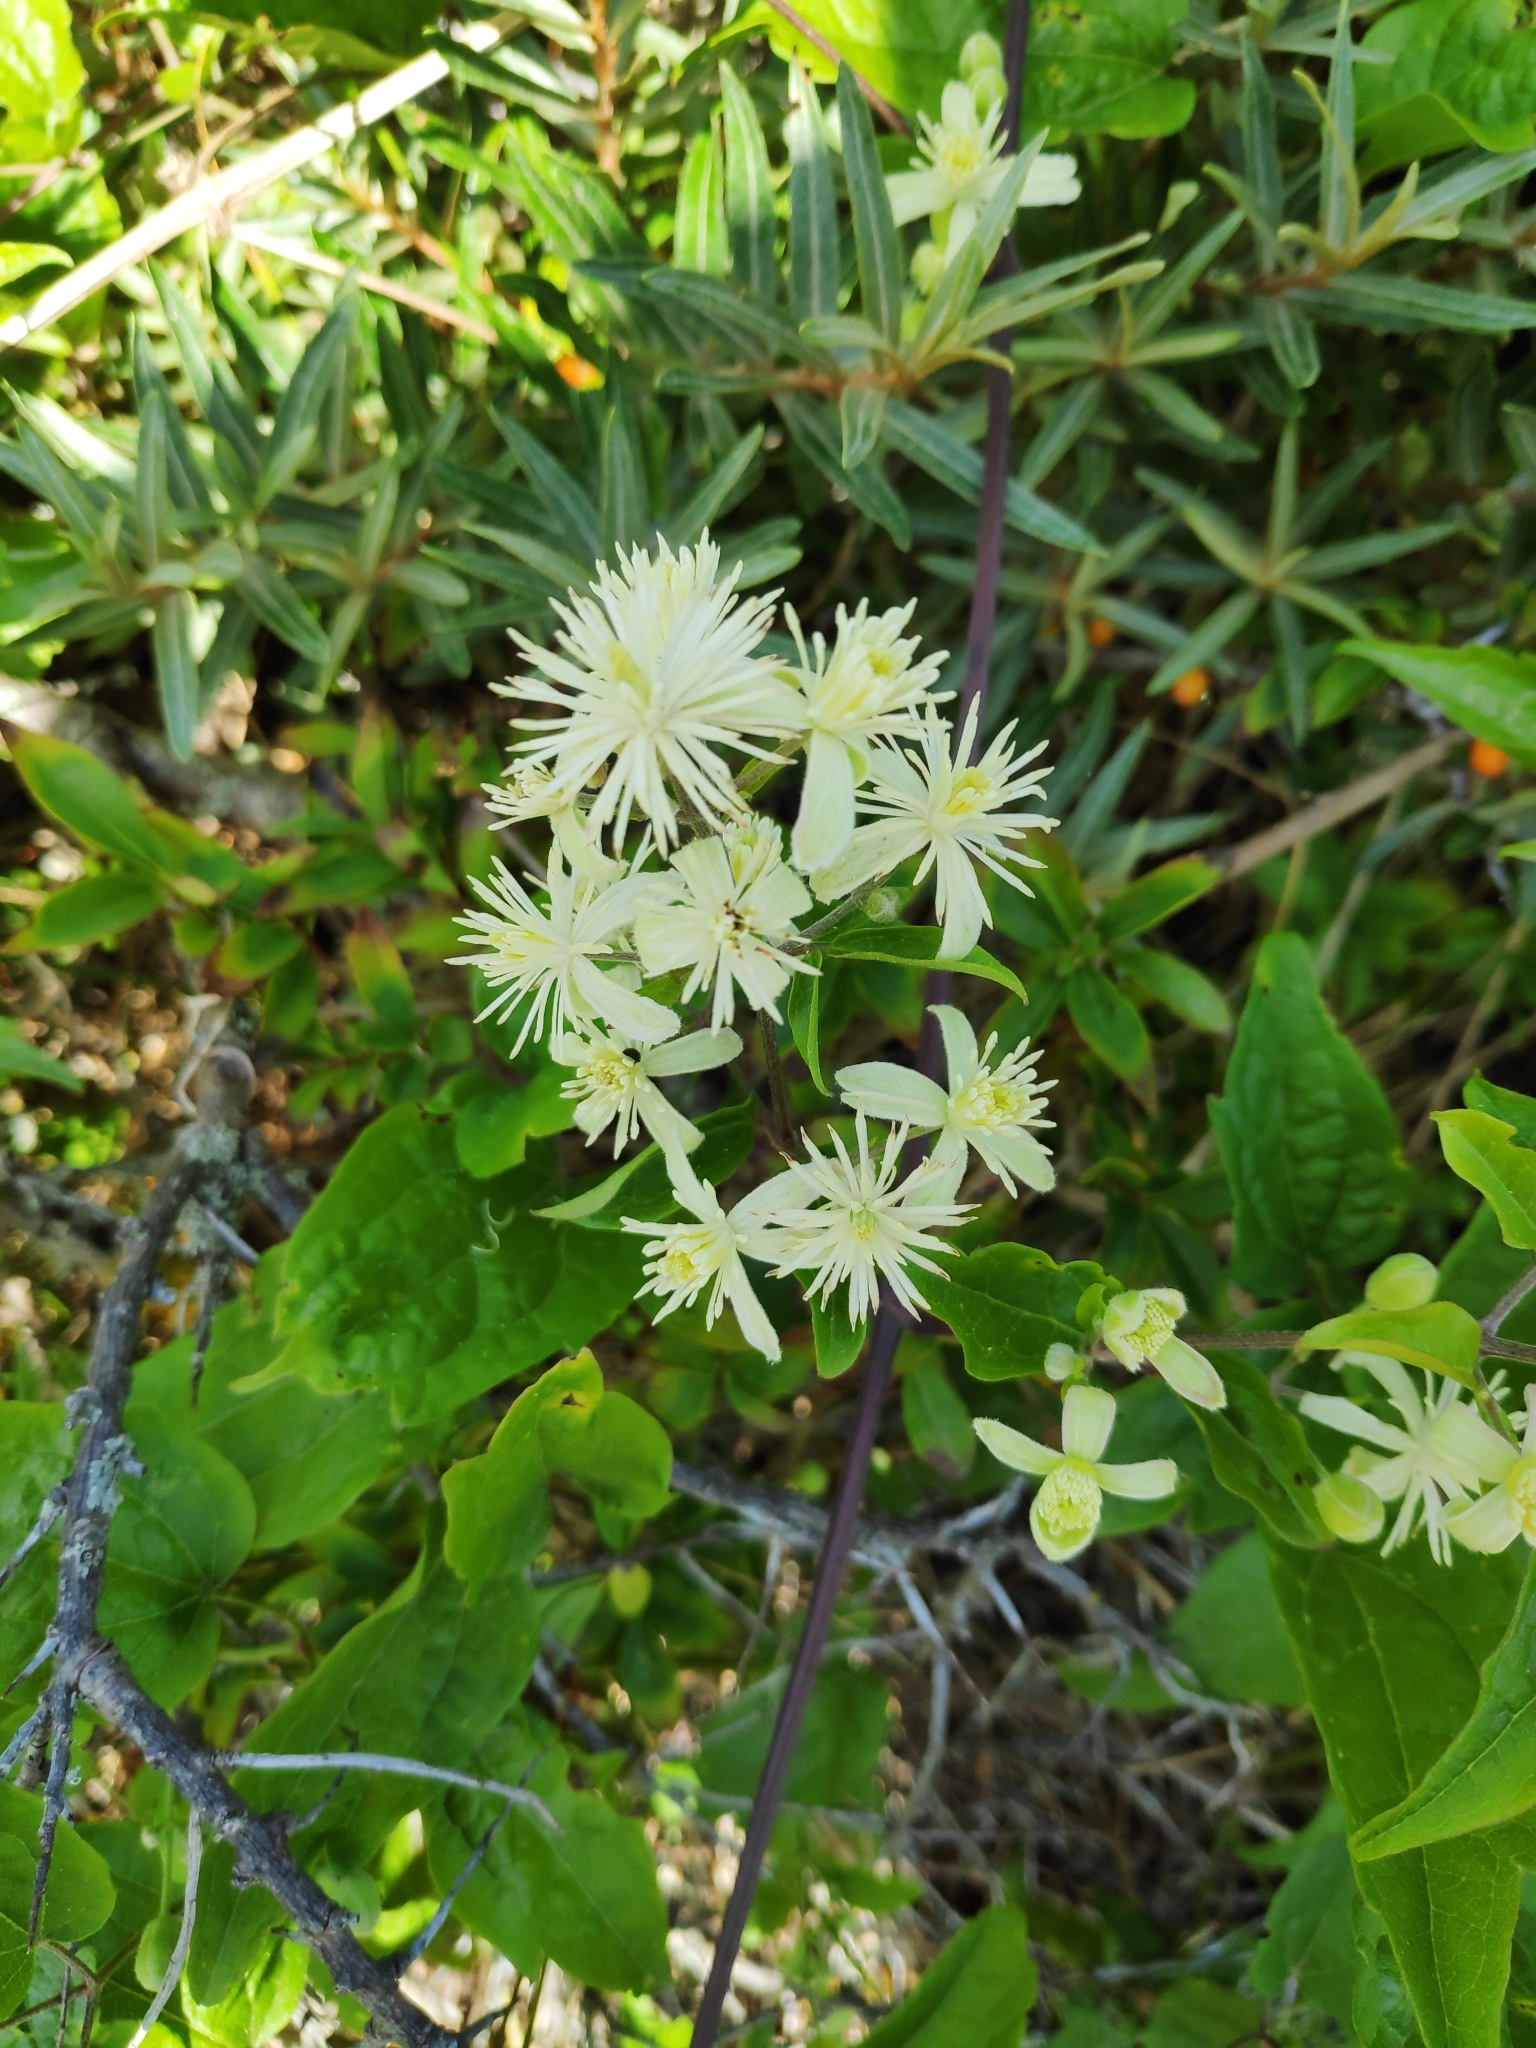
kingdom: Plantae
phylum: Tracheophyta
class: Magnoliopsida
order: Ranunculales
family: Ranunculaceae
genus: Clematis
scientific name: Clematis vitalba
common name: Evergreen clematis
